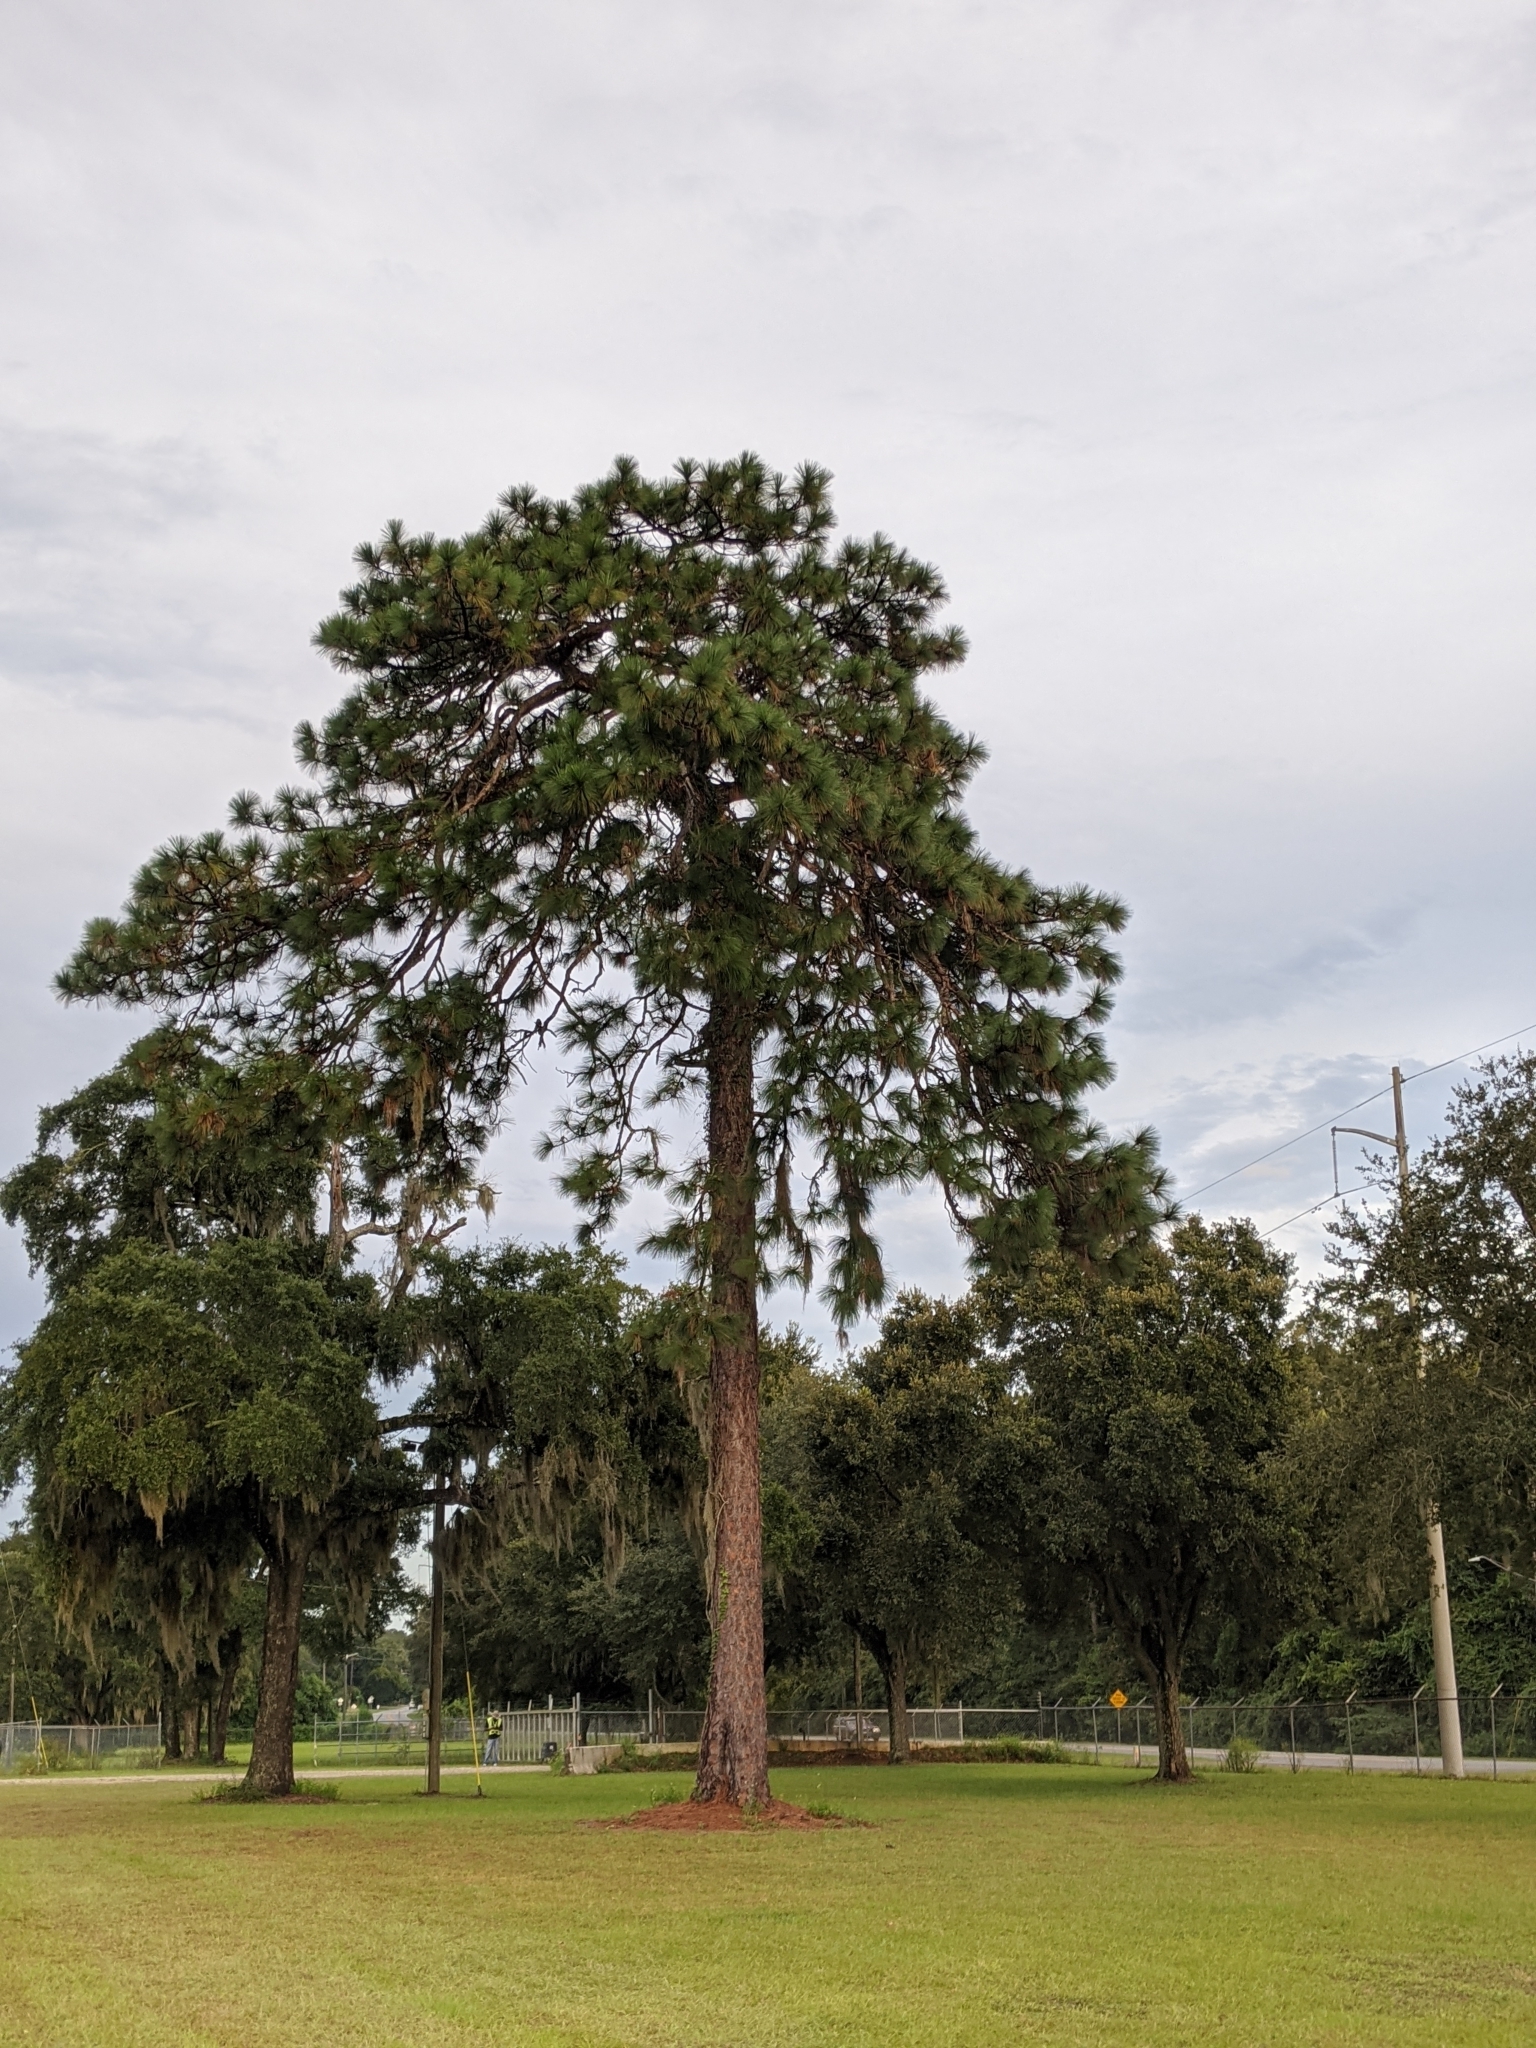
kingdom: Plantae
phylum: Tracheophyta
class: Pinopsida
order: Pinales
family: Pinaceae
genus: Pinus
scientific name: Pinus palustris
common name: Longleaf pine
